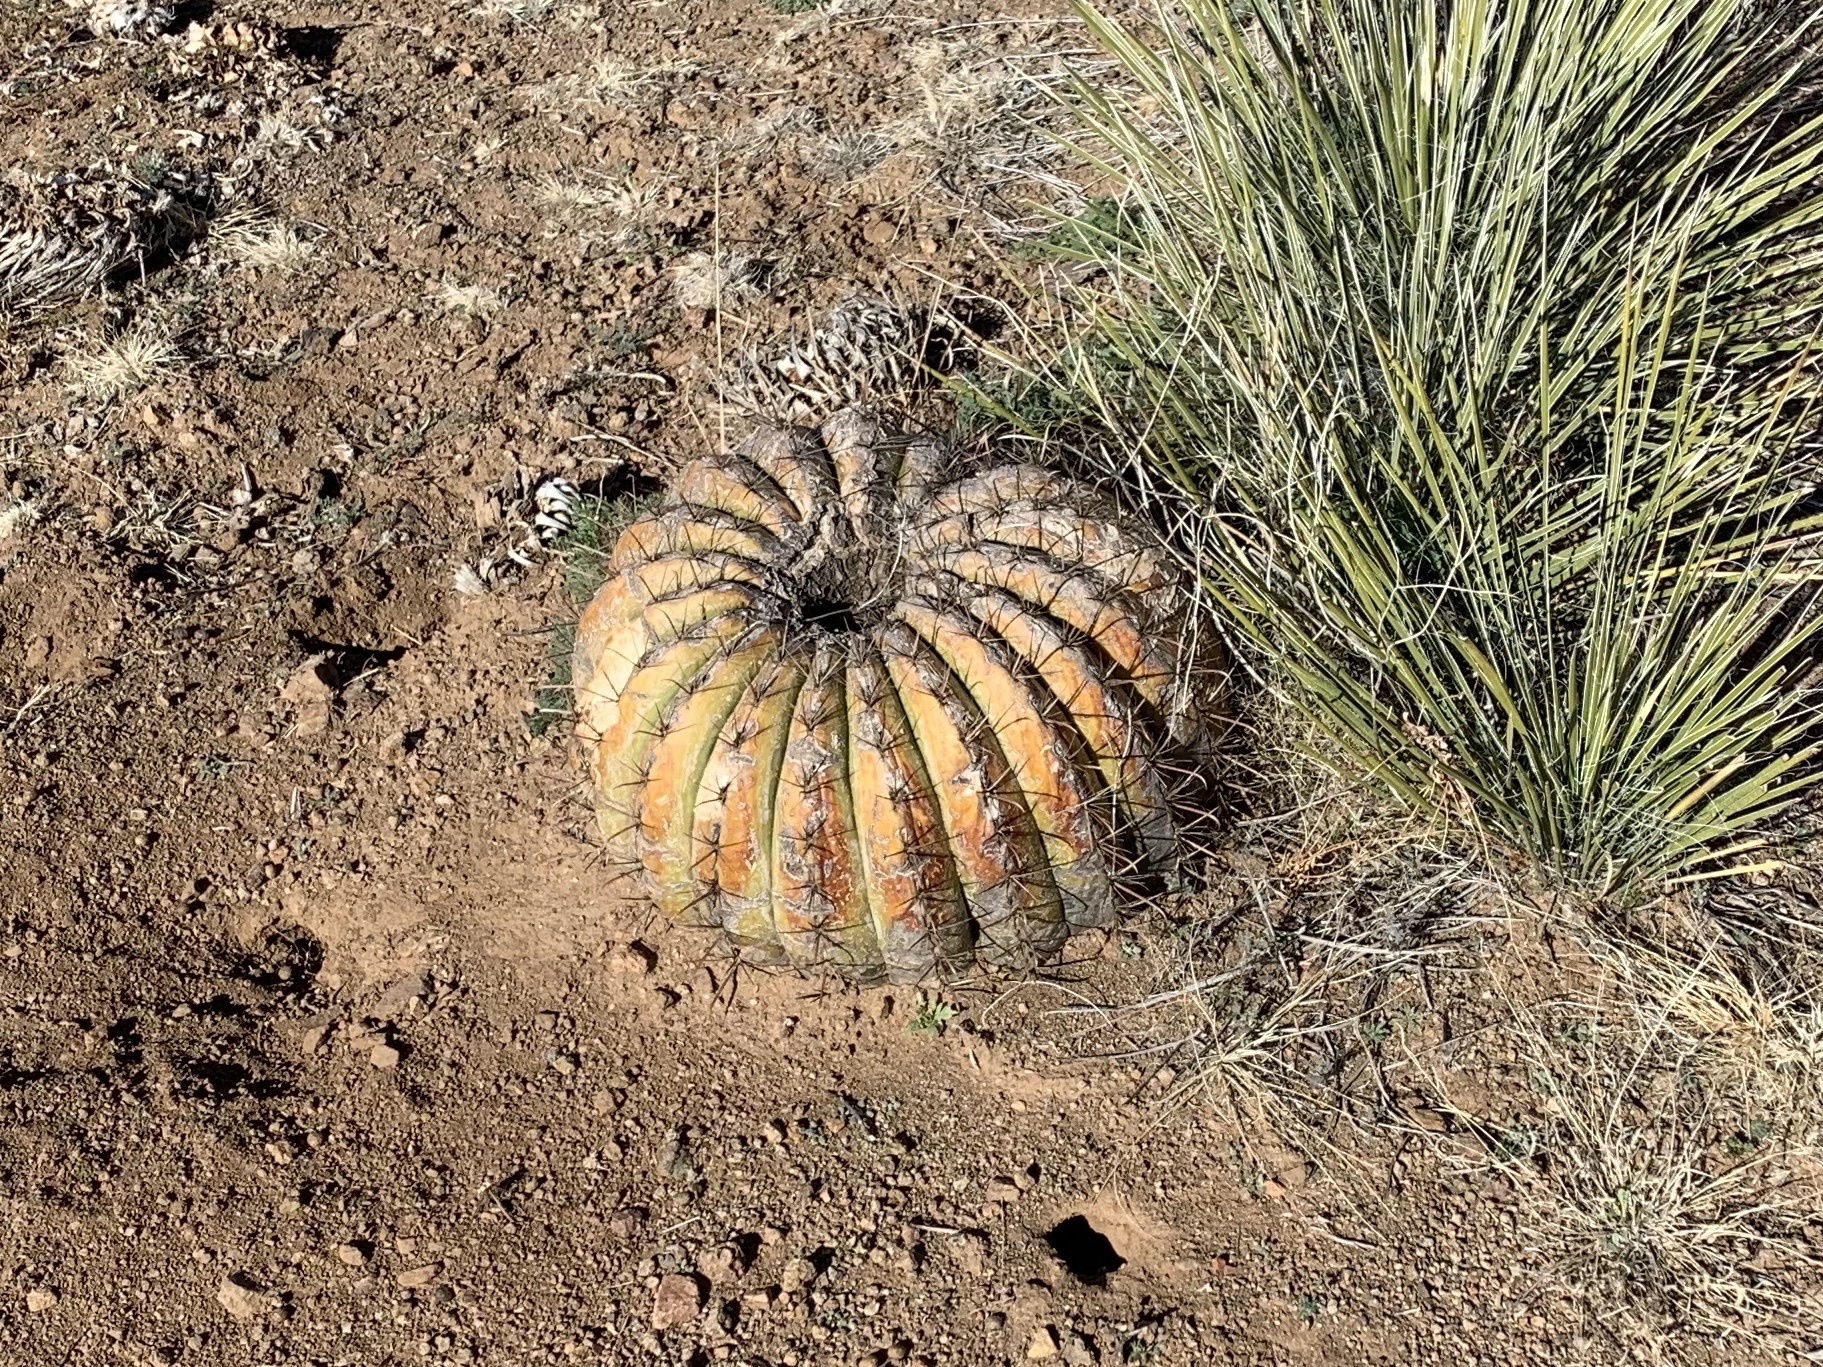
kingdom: Plantae
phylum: Tracheophyta
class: Magnoliopsida
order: Caryophyllales
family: Cactaceae
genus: Ferocactus
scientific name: Ferocactus wislizeni
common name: Candy barrel cactus
